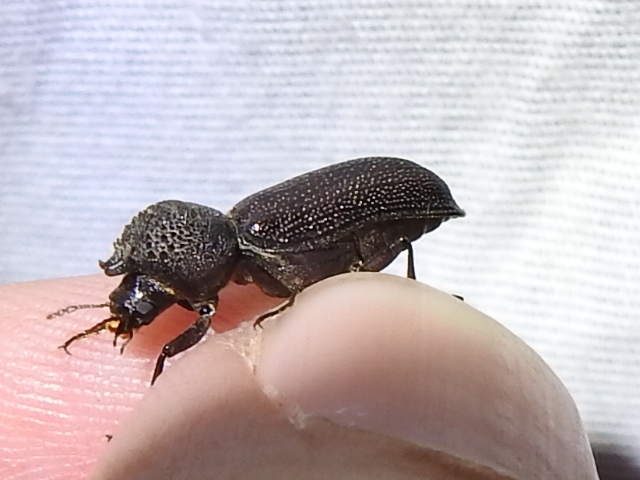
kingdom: Animalia
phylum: Arthropoda
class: Insecta
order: Coleoptera
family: Bostrichidae
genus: Apatides
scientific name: Apatides fortis
